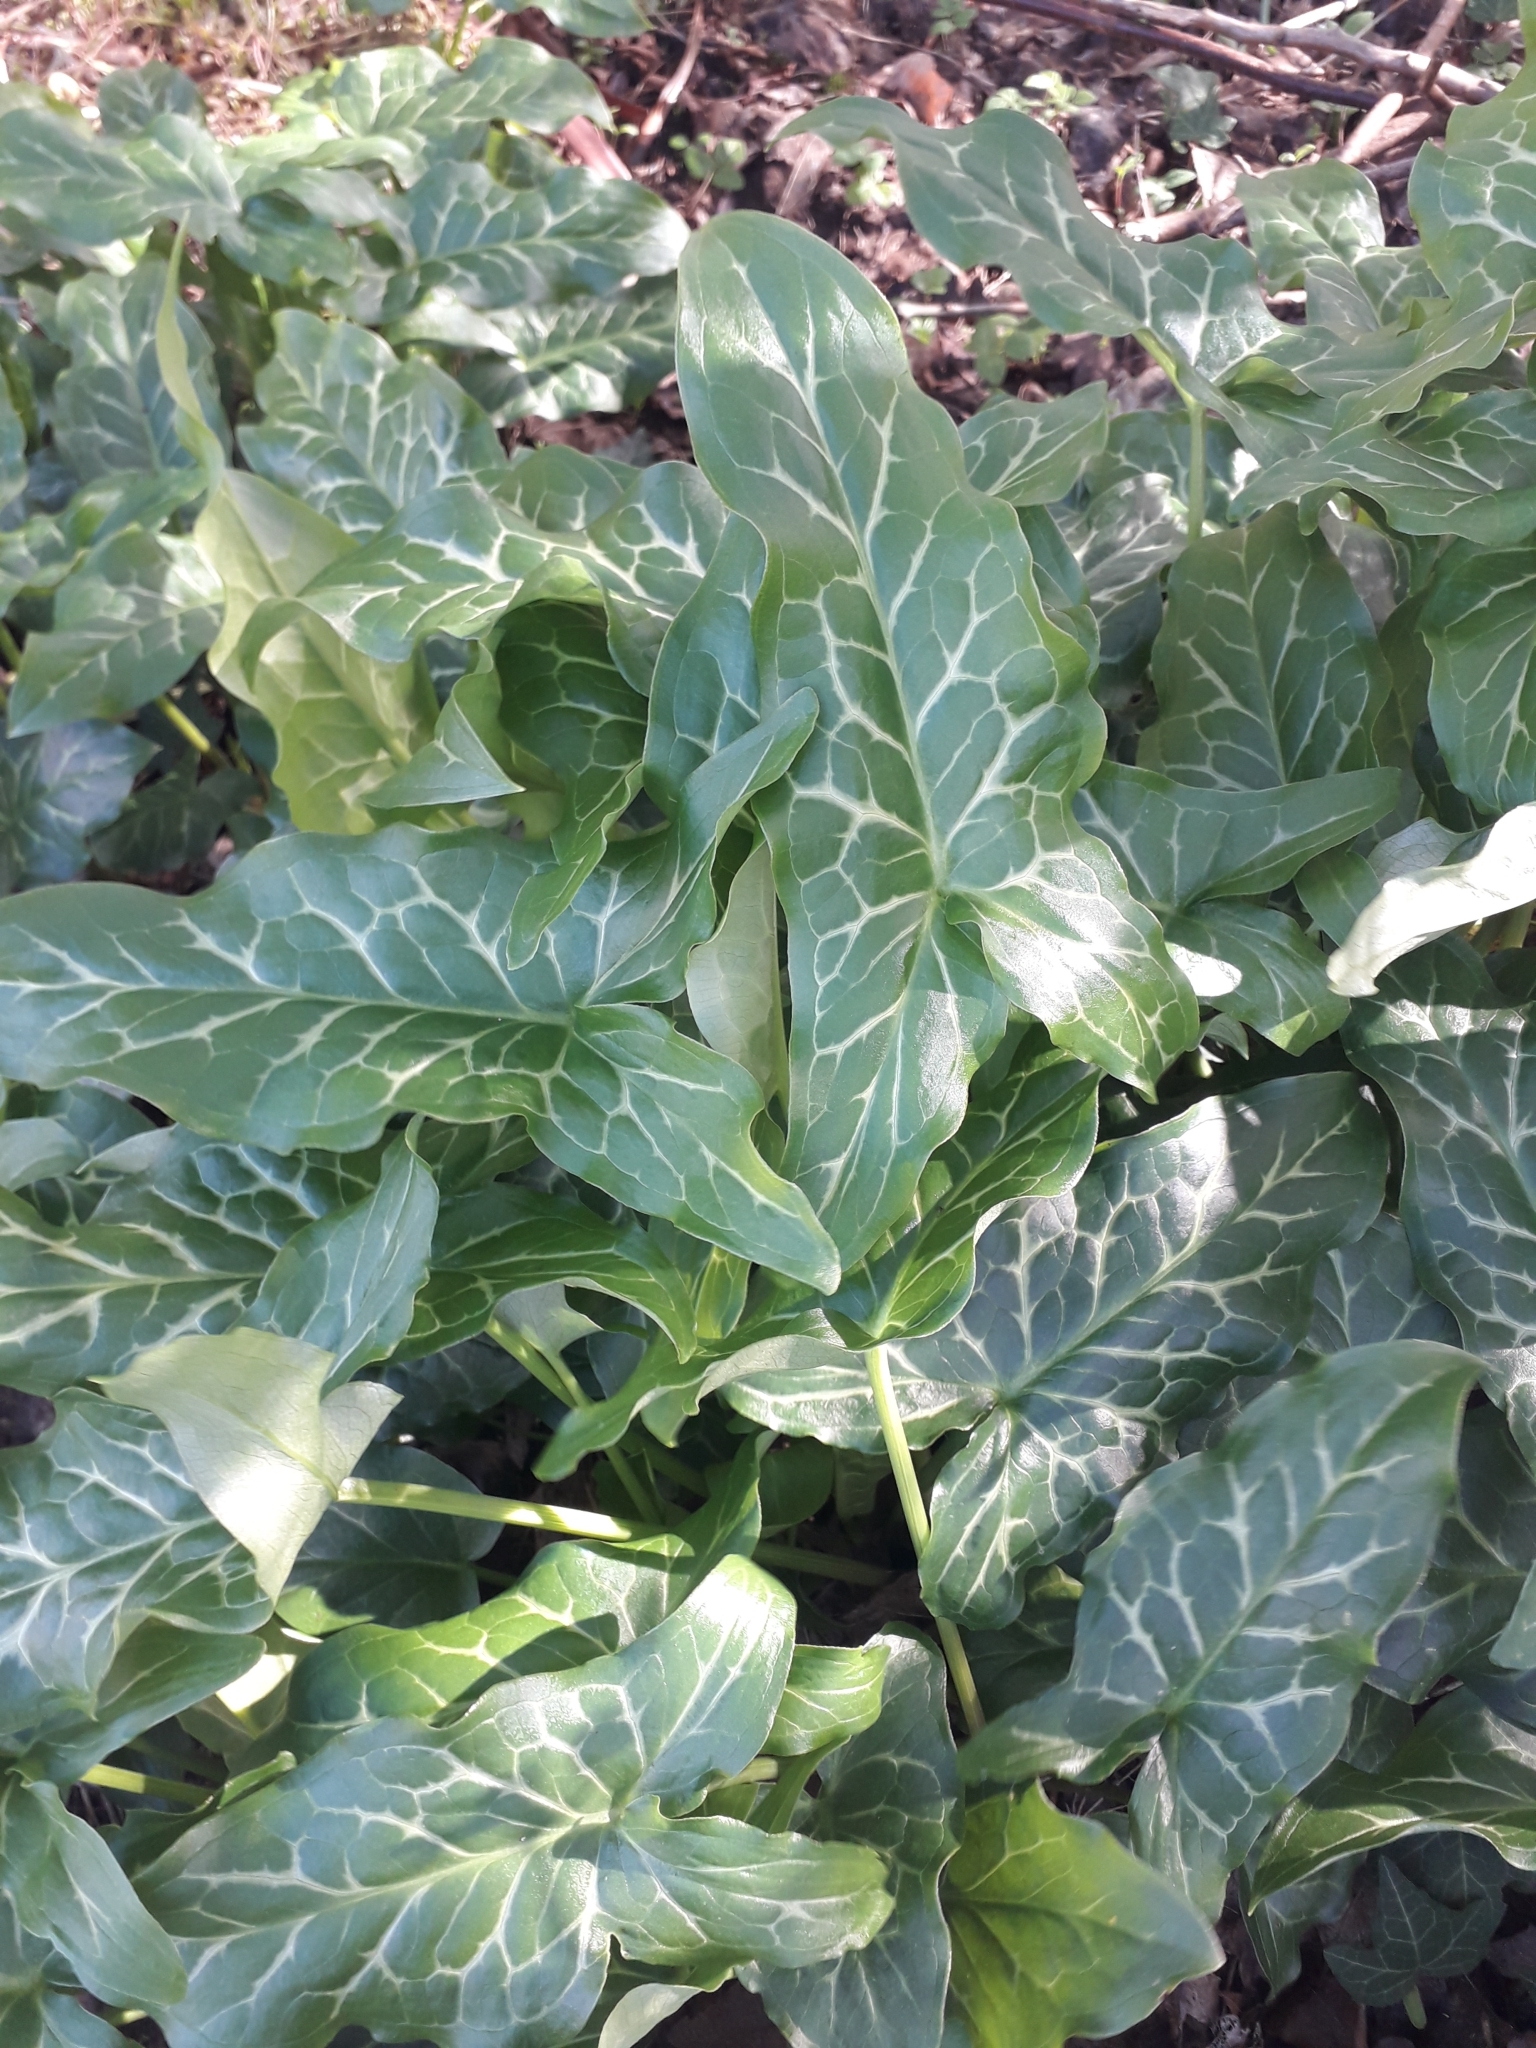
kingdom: Plantae
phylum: Tracheophyta
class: Liliopsida
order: Alismatales
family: Araceae
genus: Arum
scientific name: Arum italicum
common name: Italian lords-and-ladies
